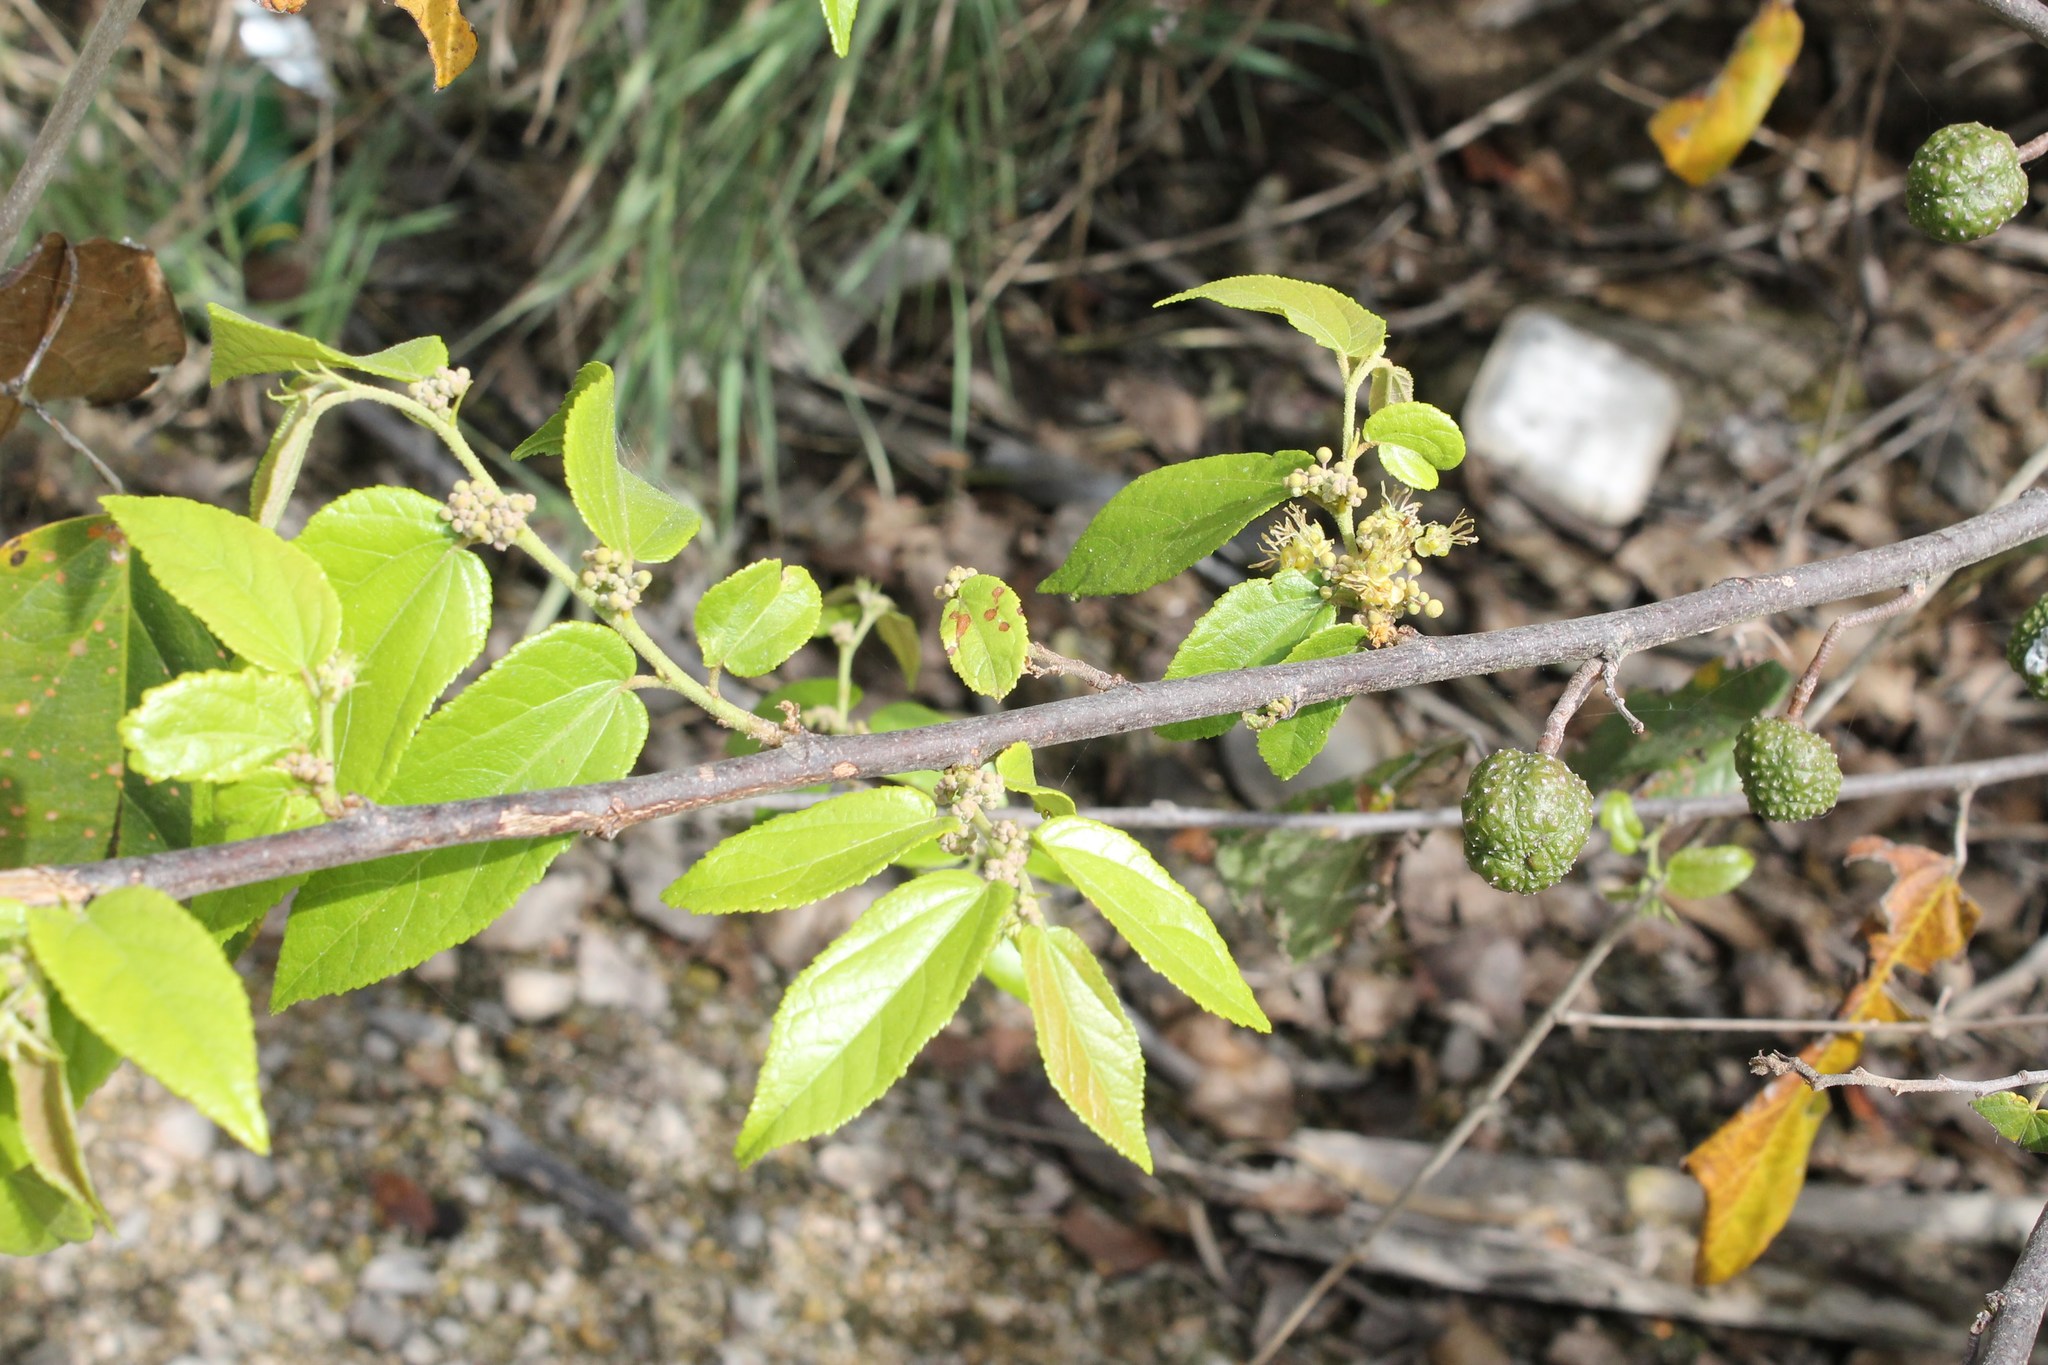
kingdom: Plantae
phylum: Tracheophyta
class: Magnoliopsida
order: Malvales
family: Malvaceae
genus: Guazuma
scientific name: Guazuma ulmifolia
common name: Bastard-cedar
